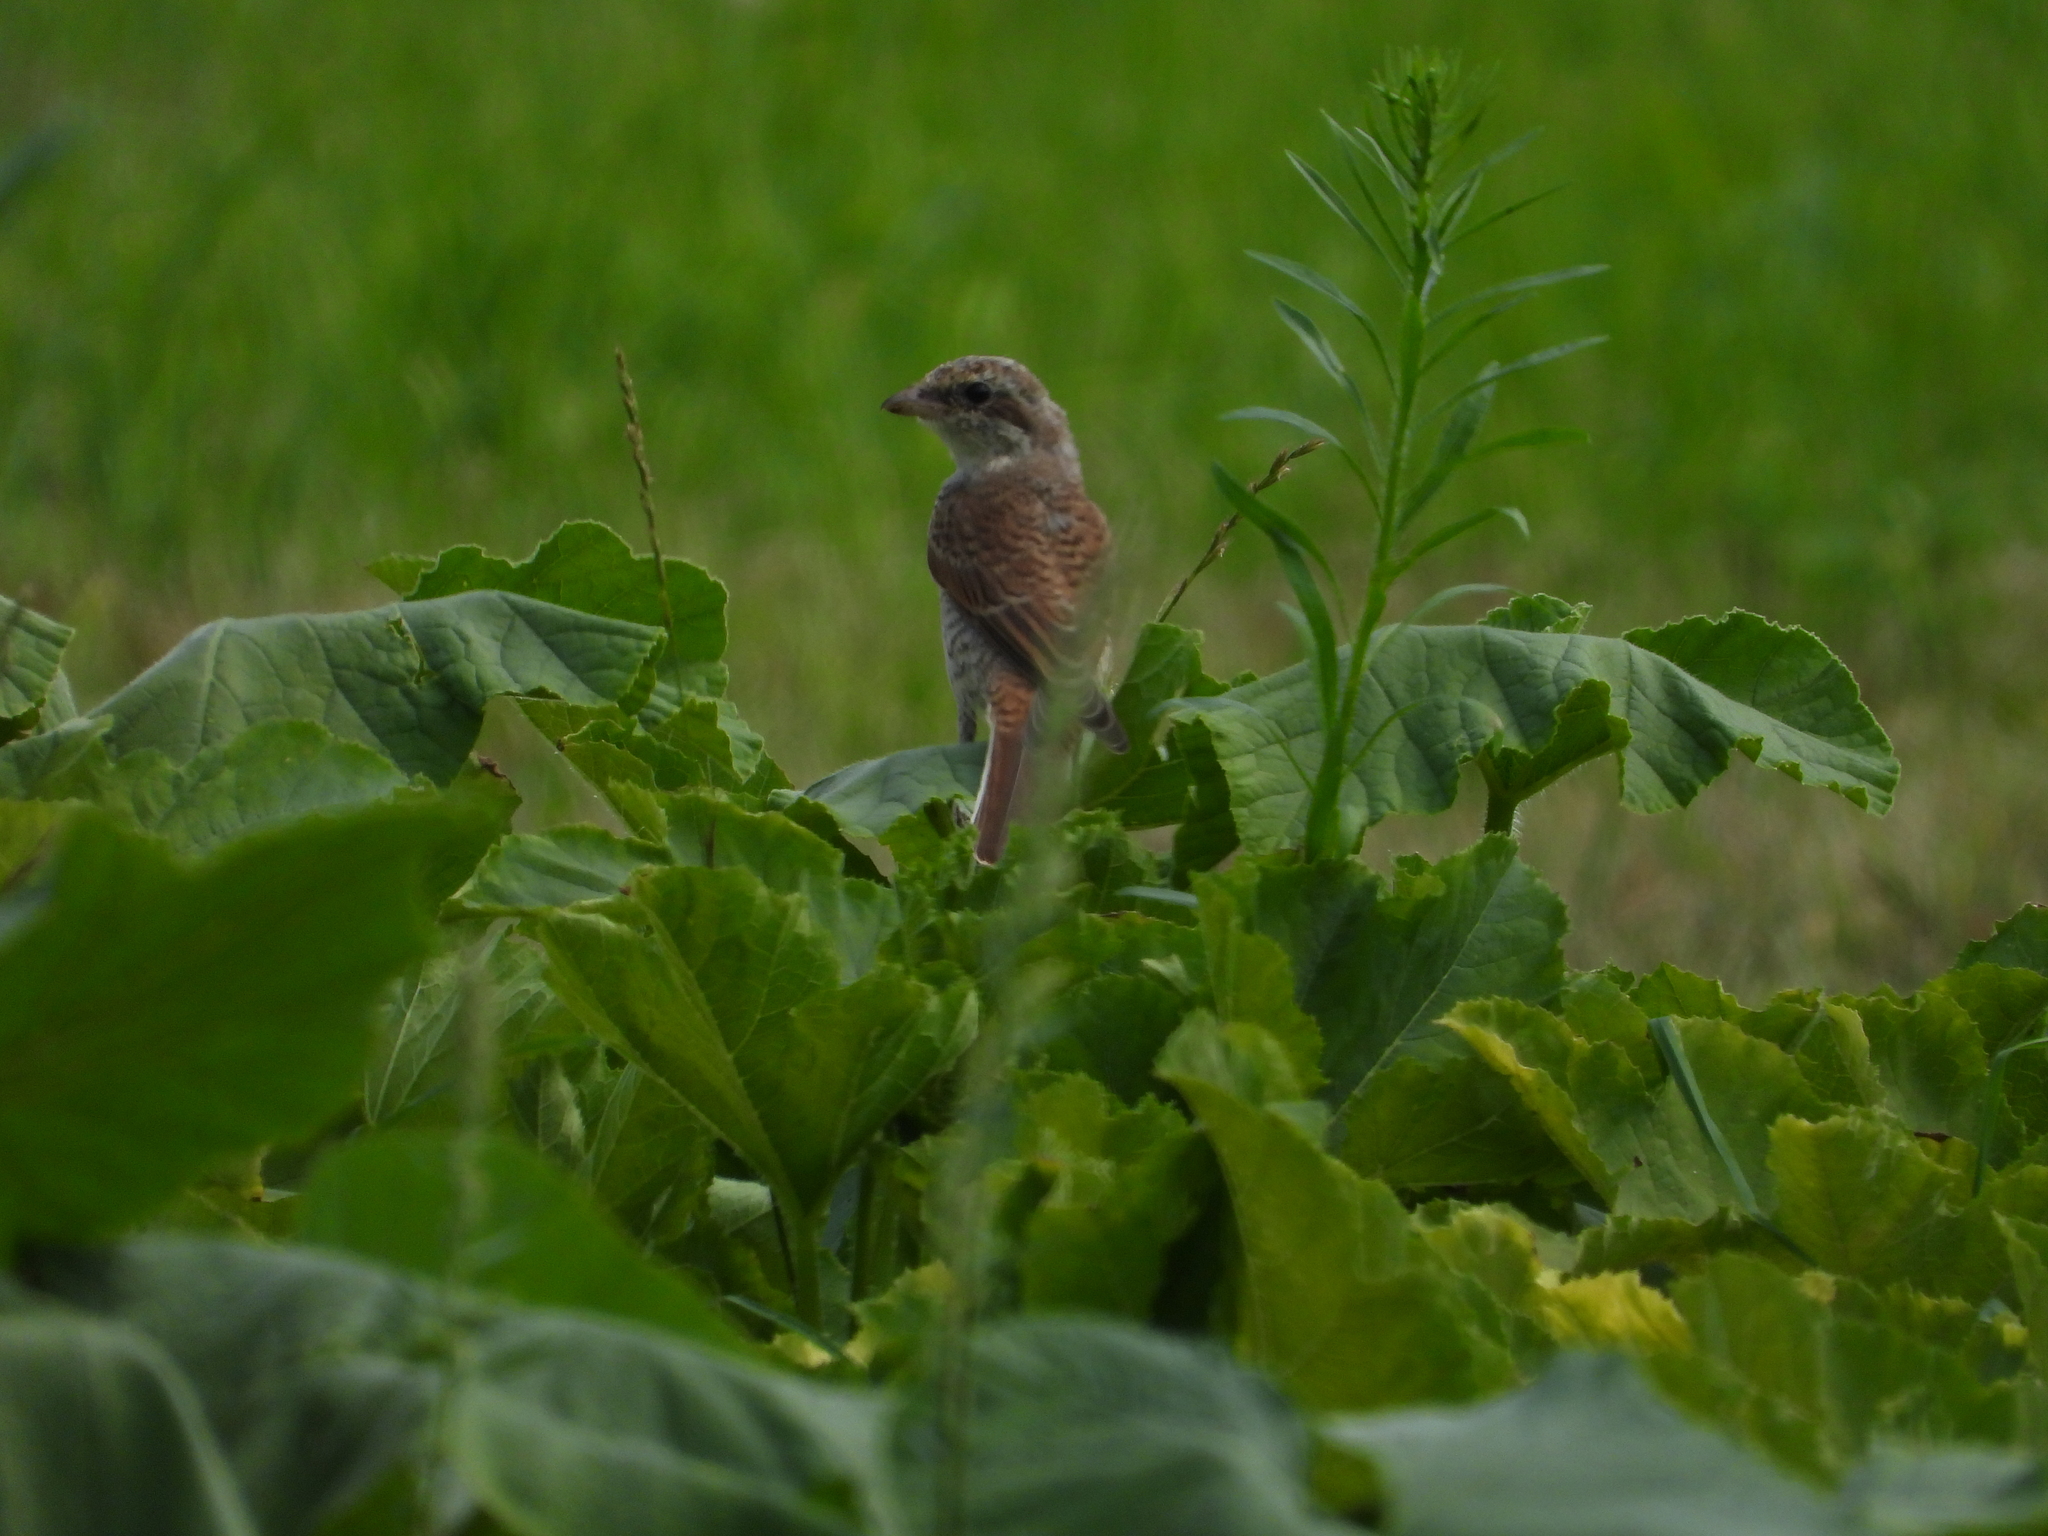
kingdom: Animalia
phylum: Chordata
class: Aves
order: Passeriformes
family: Laniidae
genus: Lanius
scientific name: Lanius collurio
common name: Red-backed shrike
